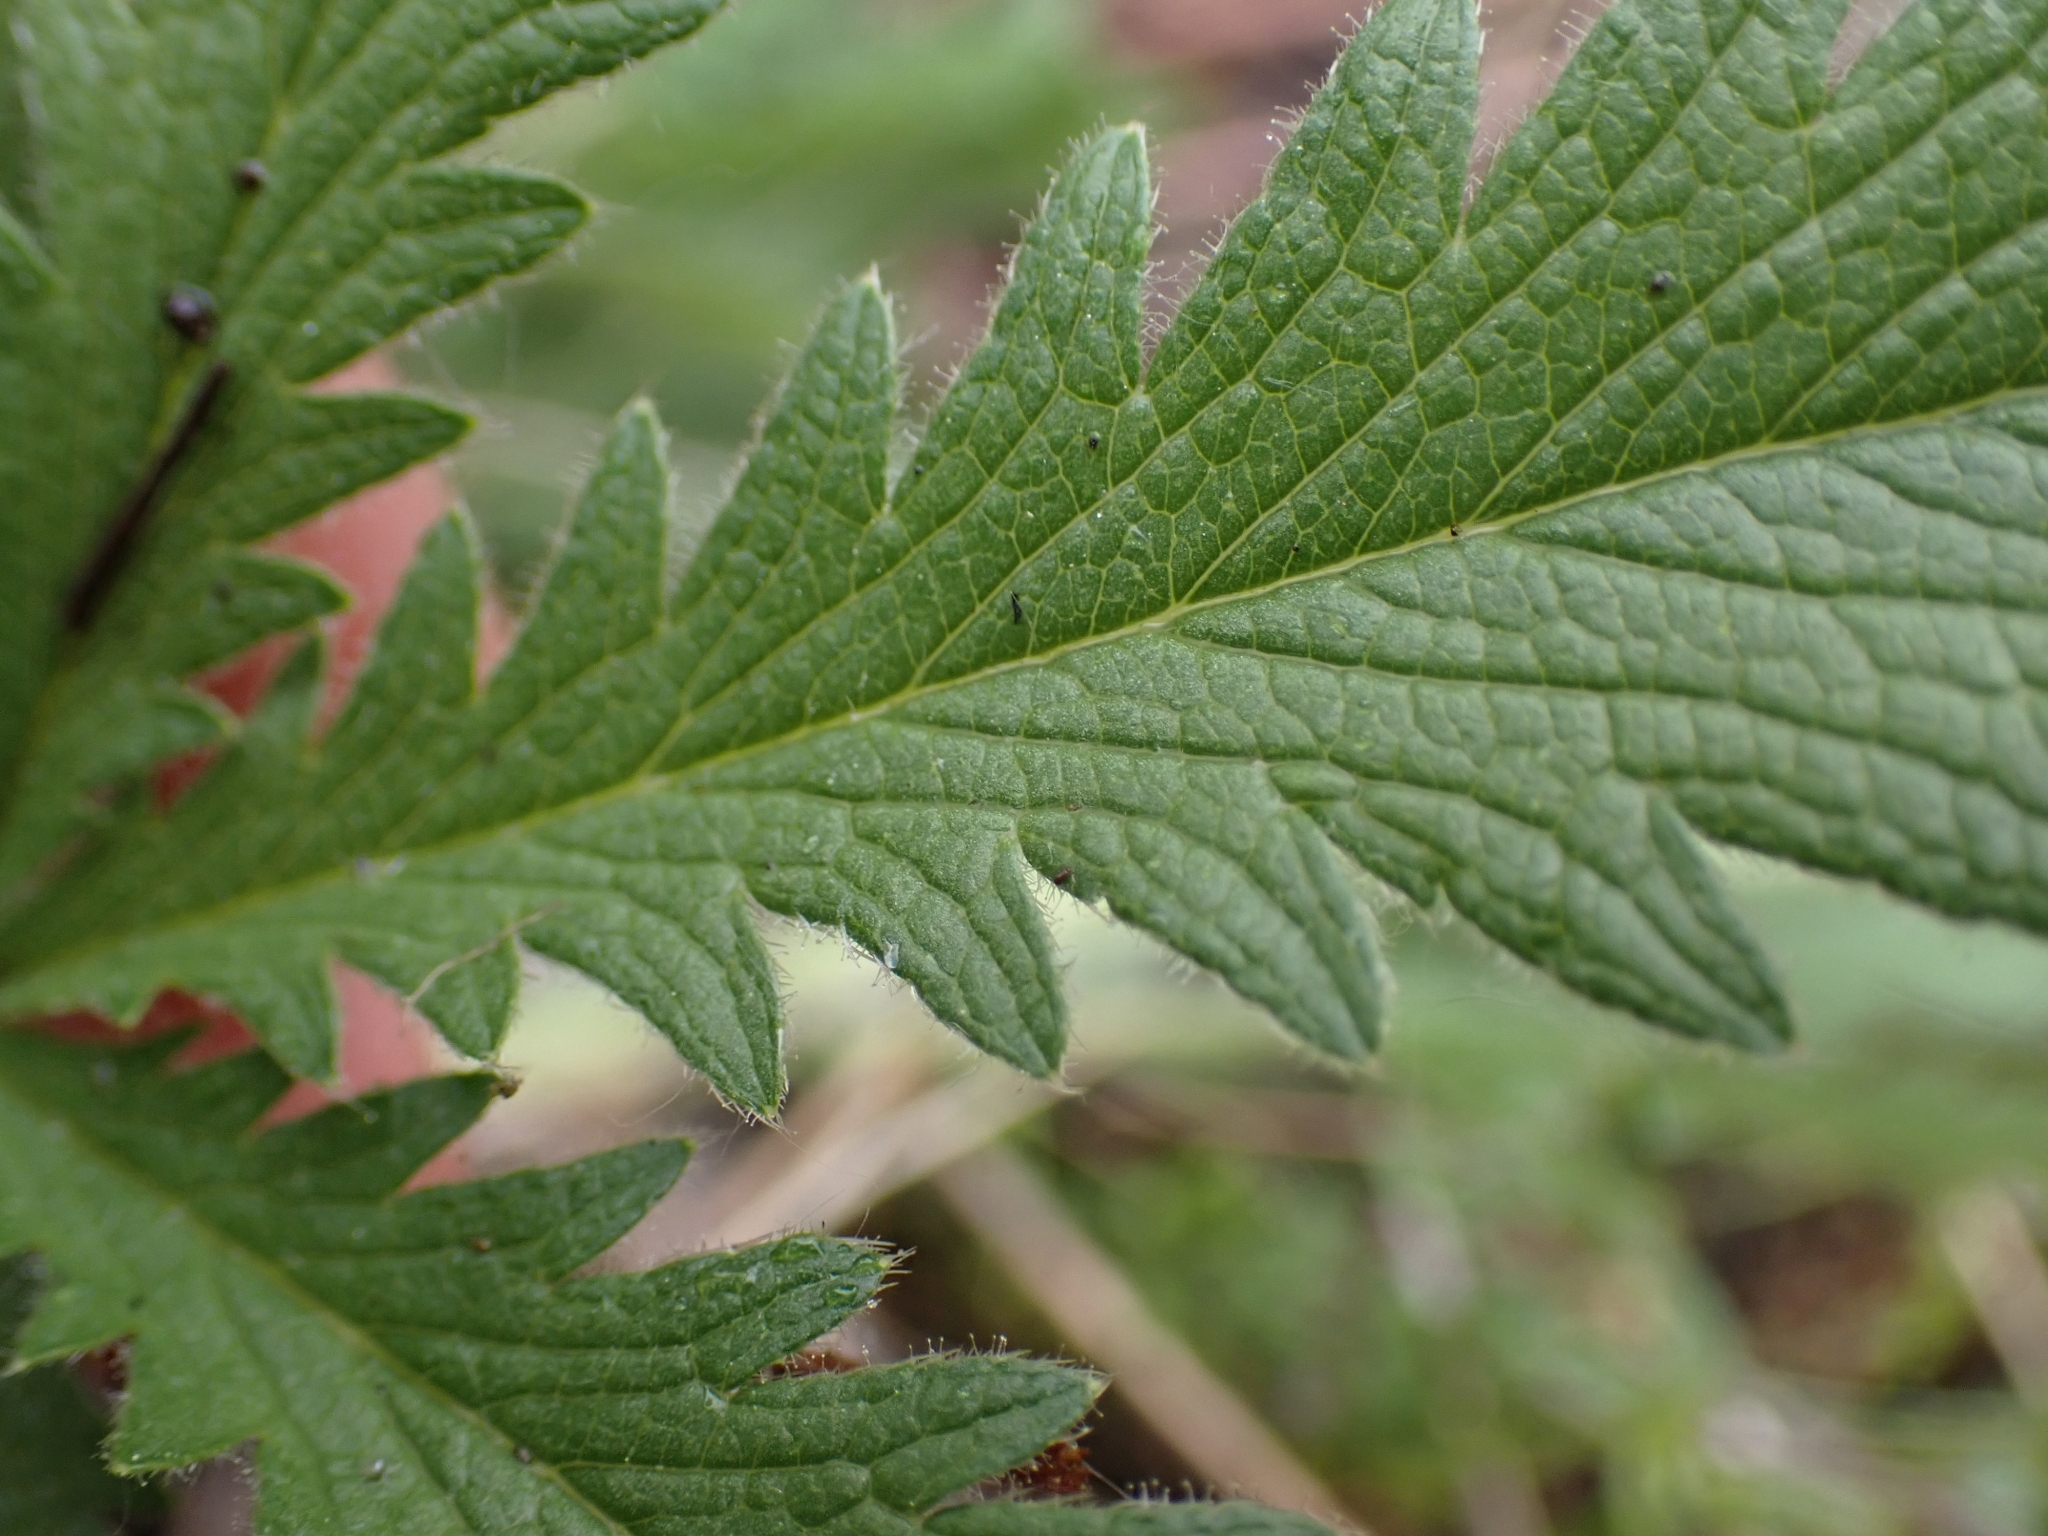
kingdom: Plantae
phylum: Tracheophyta
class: Magnoliopsida
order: Rosales
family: Rosaceae
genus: Potentilla
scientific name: Potentilla recta
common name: Sulphur cinquefoil
